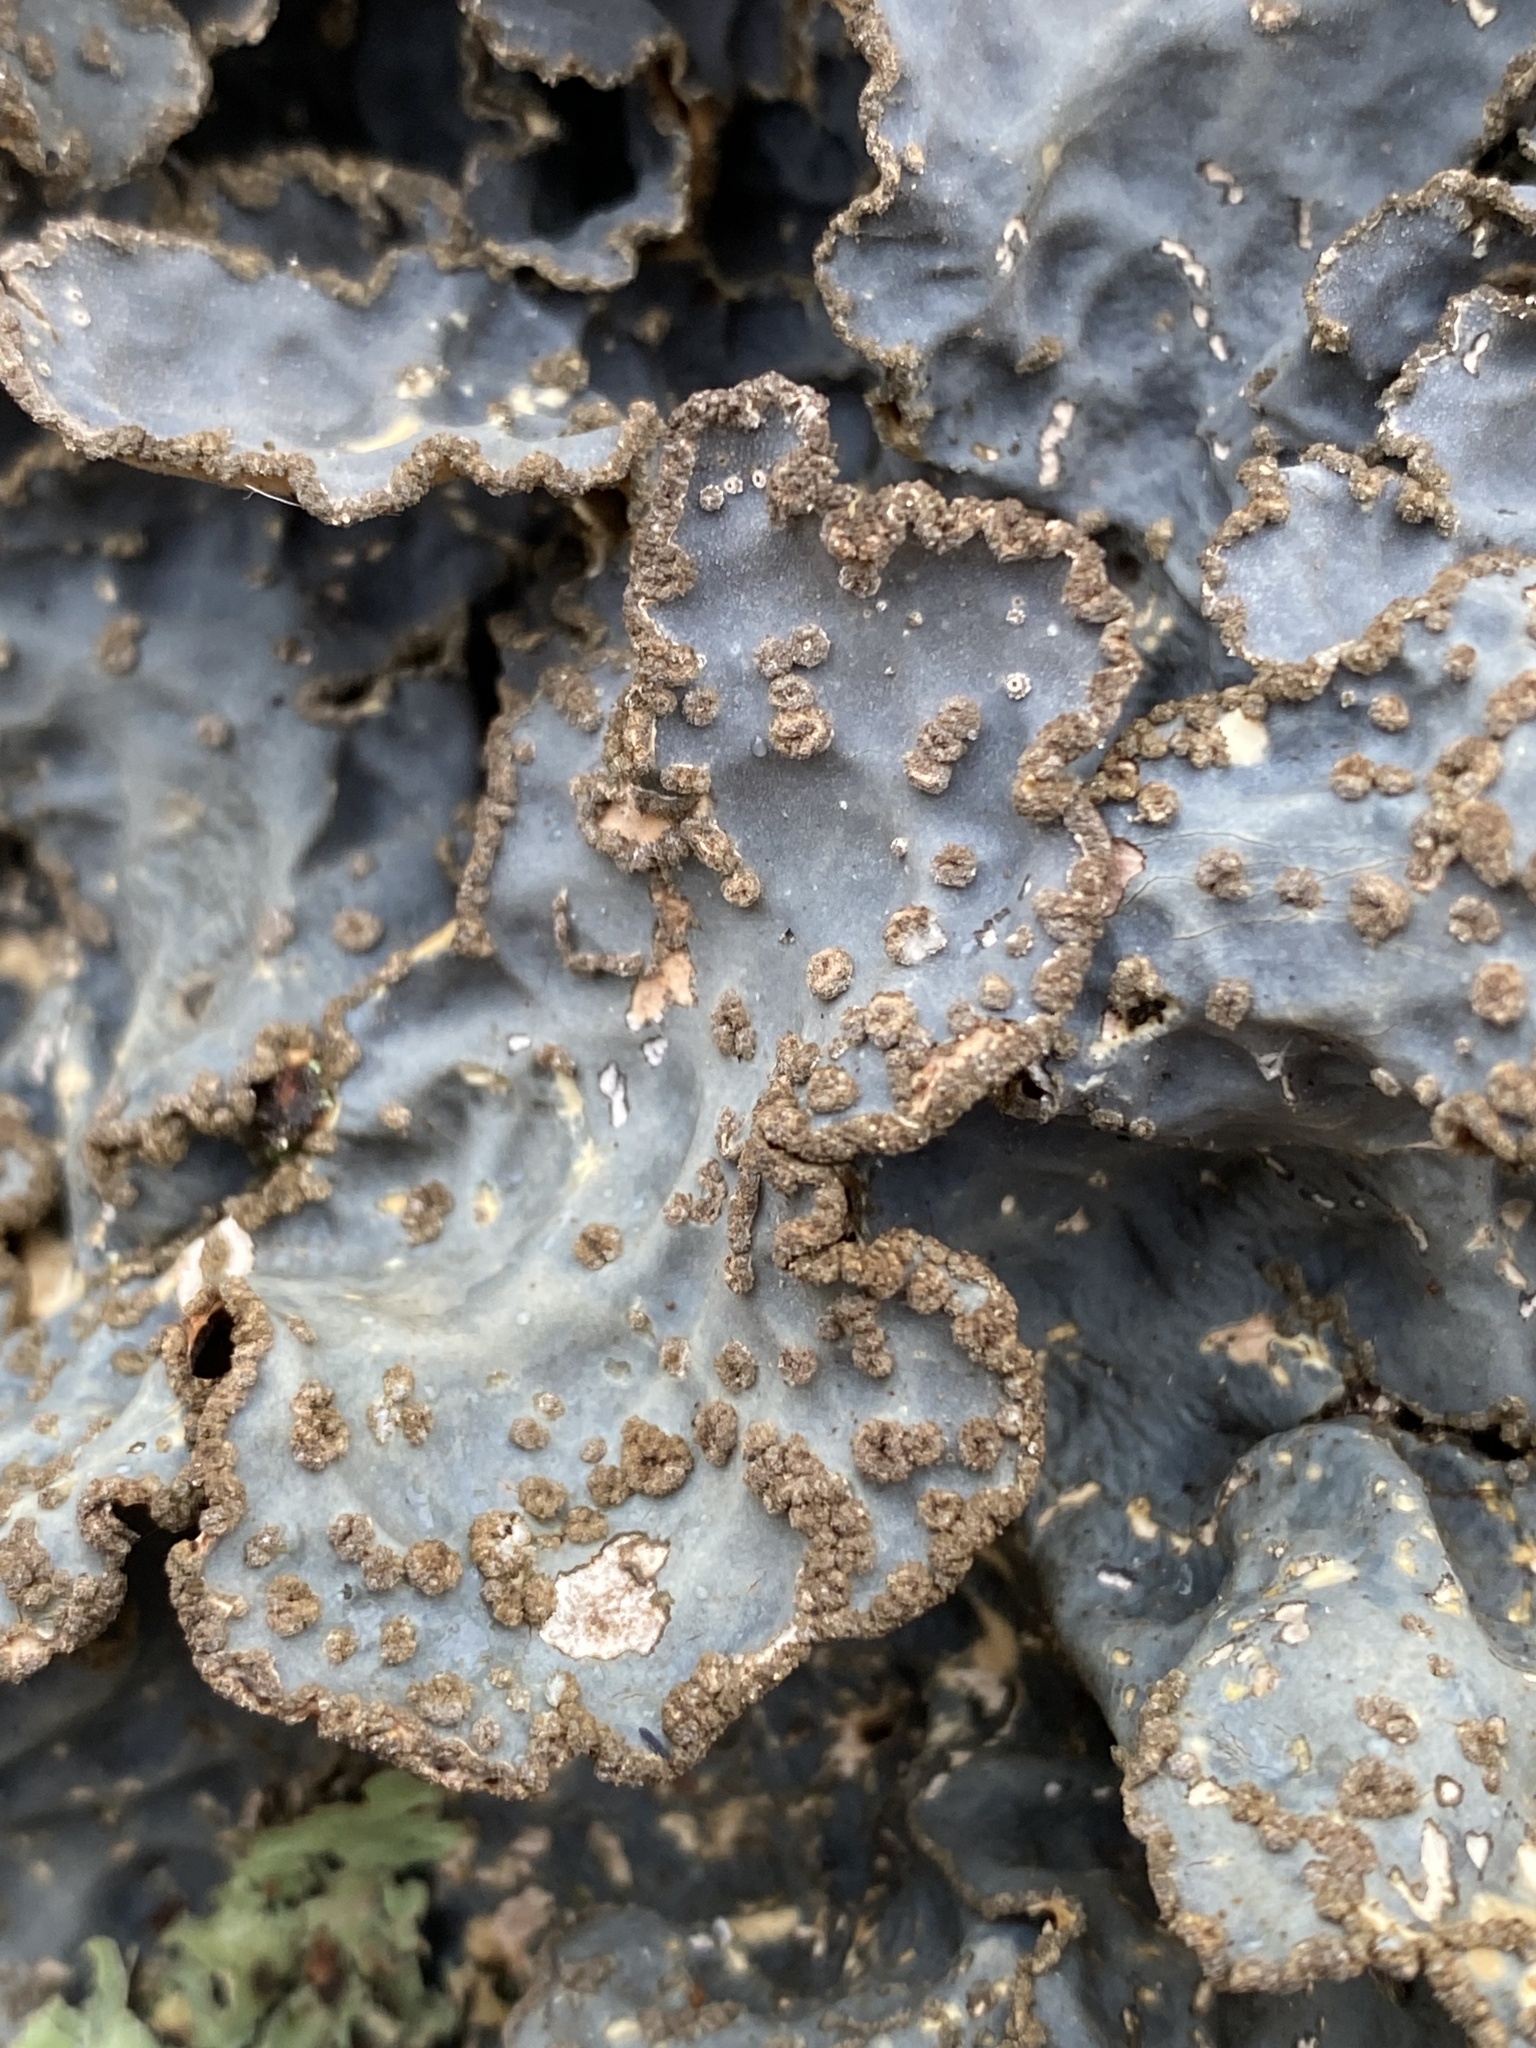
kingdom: Fungi
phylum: Ascomycota
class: Lecanoromycetes
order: Peltigerales
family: Lobariaceae
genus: Lobarina
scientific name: Lobarina scrobiculata
